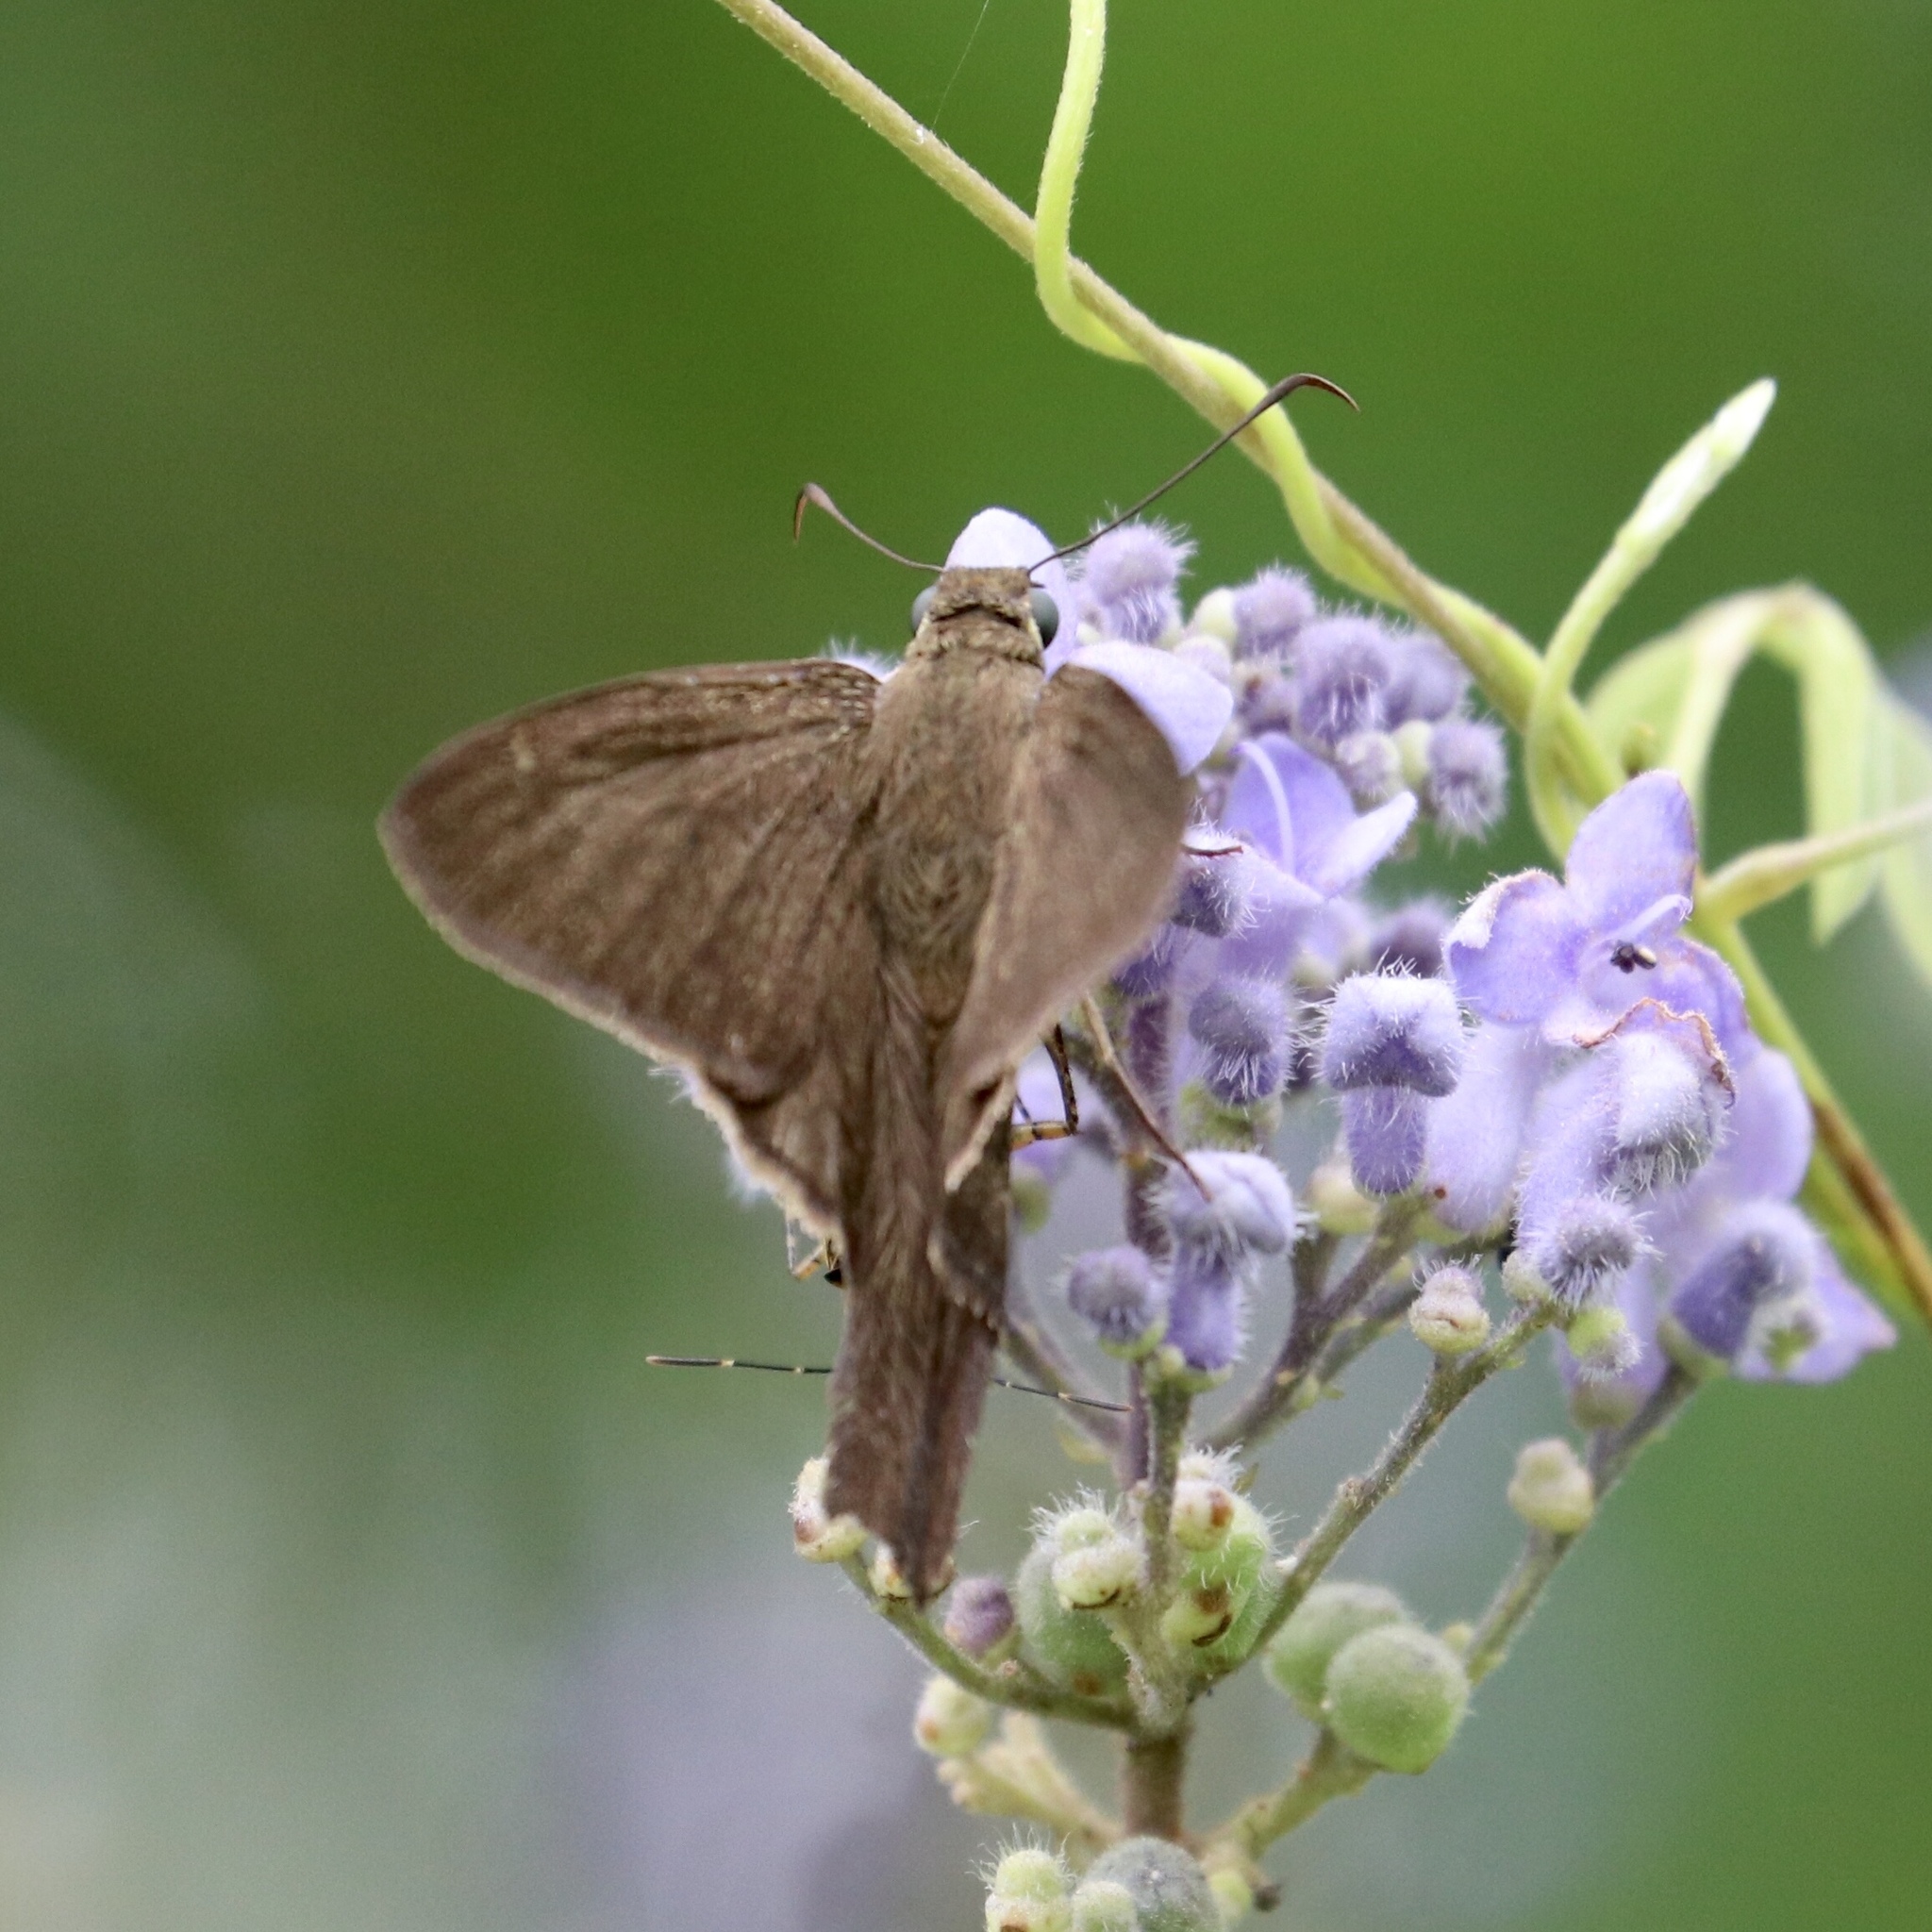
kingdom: Animalia
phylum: Arthropoda
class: Insecta
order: Lepidoptera
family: Hesperiidae
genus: Urbanus
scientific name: Urbanus procne
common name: Brown longtail
